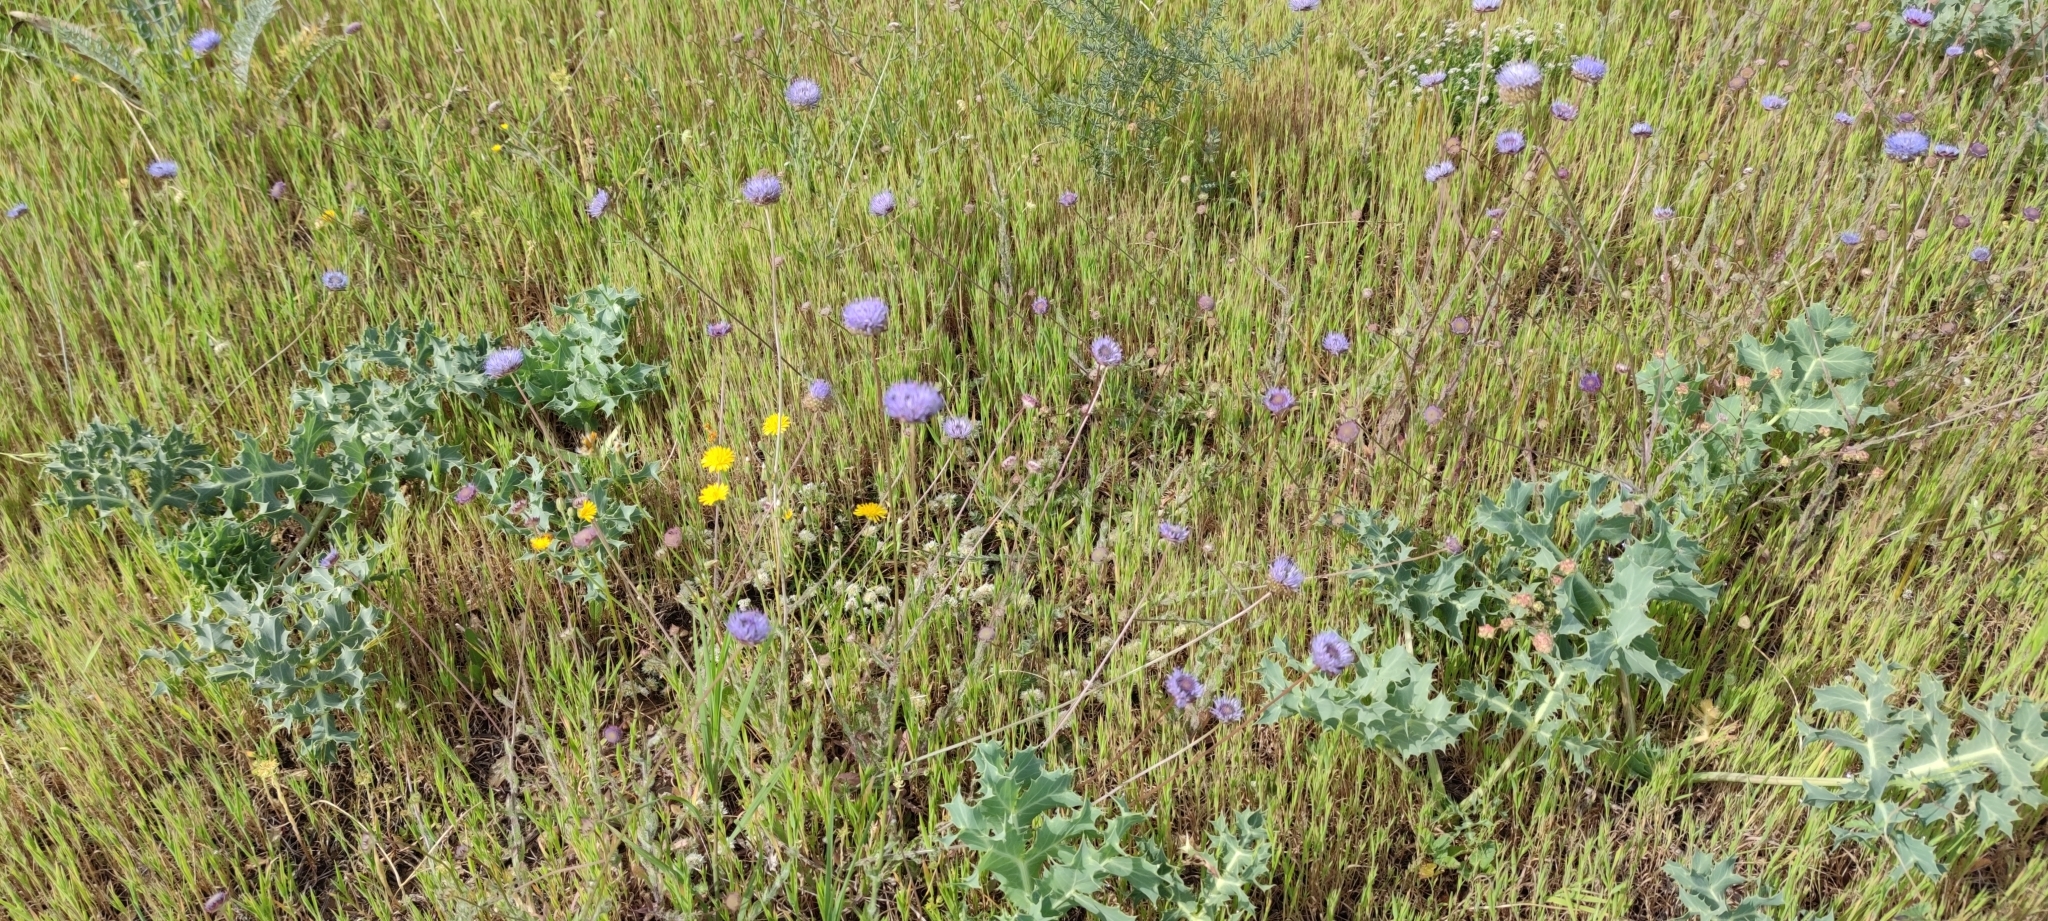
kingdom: Plantae
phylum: Tracheophyta
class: Magnoliopsida
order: Asterales
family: Campanulaceae
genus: Jasione
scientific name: Jasione montana
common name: Sheep's-bit
